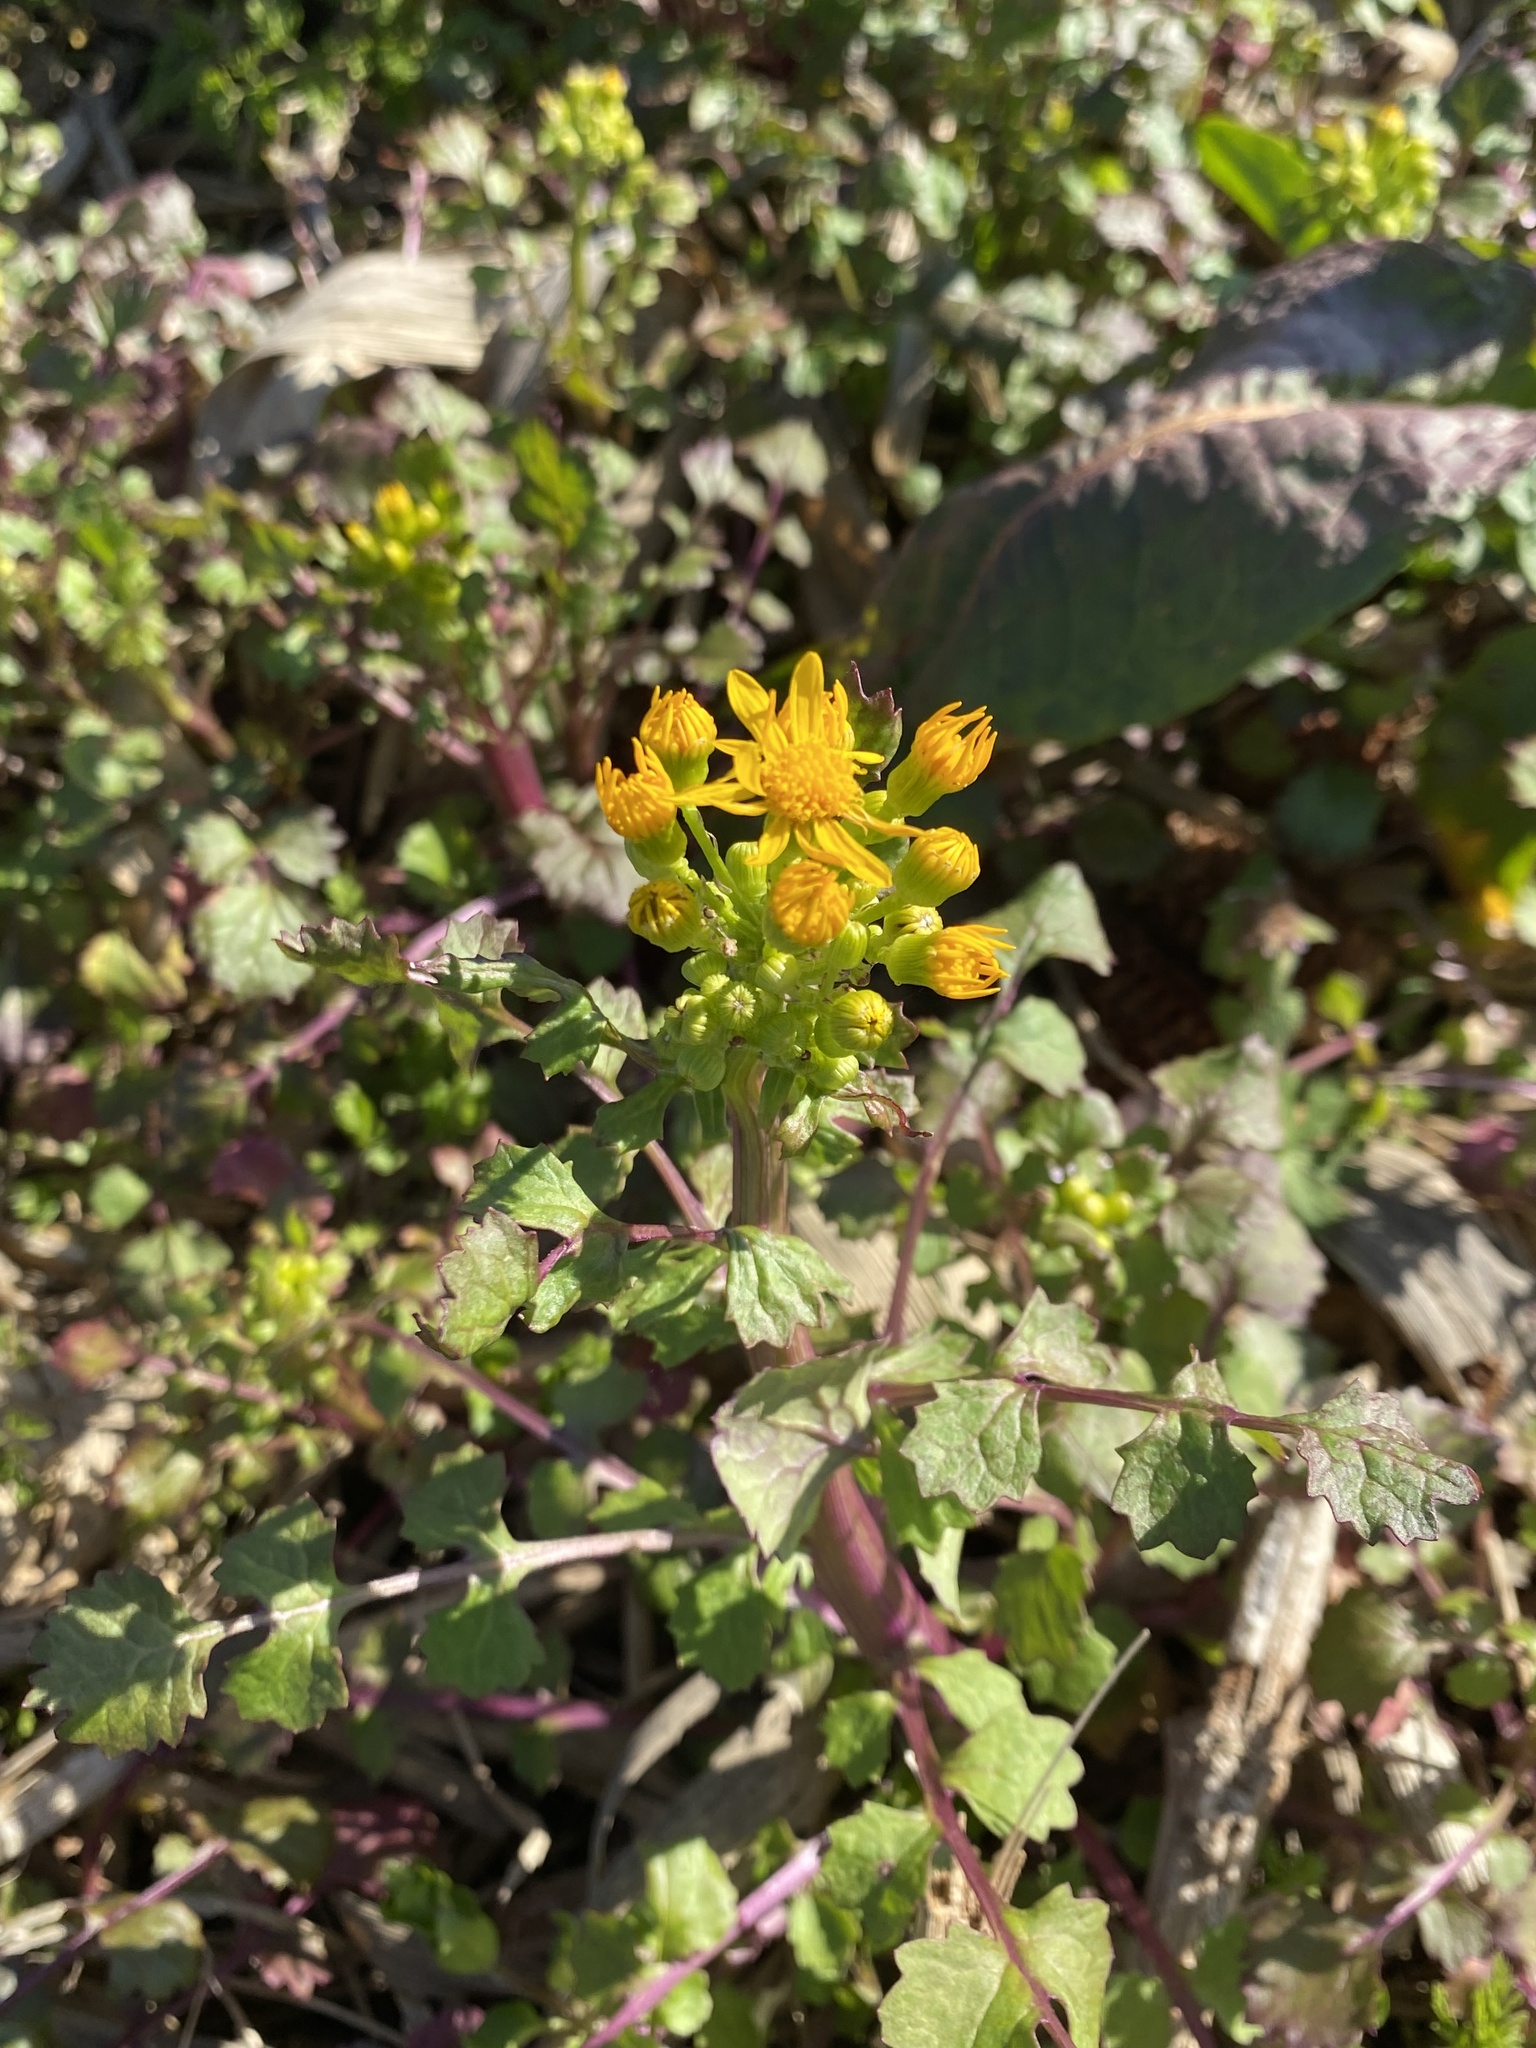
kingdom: Plantae
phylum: Tracheophyta
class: Magnoliopsida
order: Asterales
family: Asteraceae
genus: Packera
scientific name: Packera glabella
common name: Butterweed
